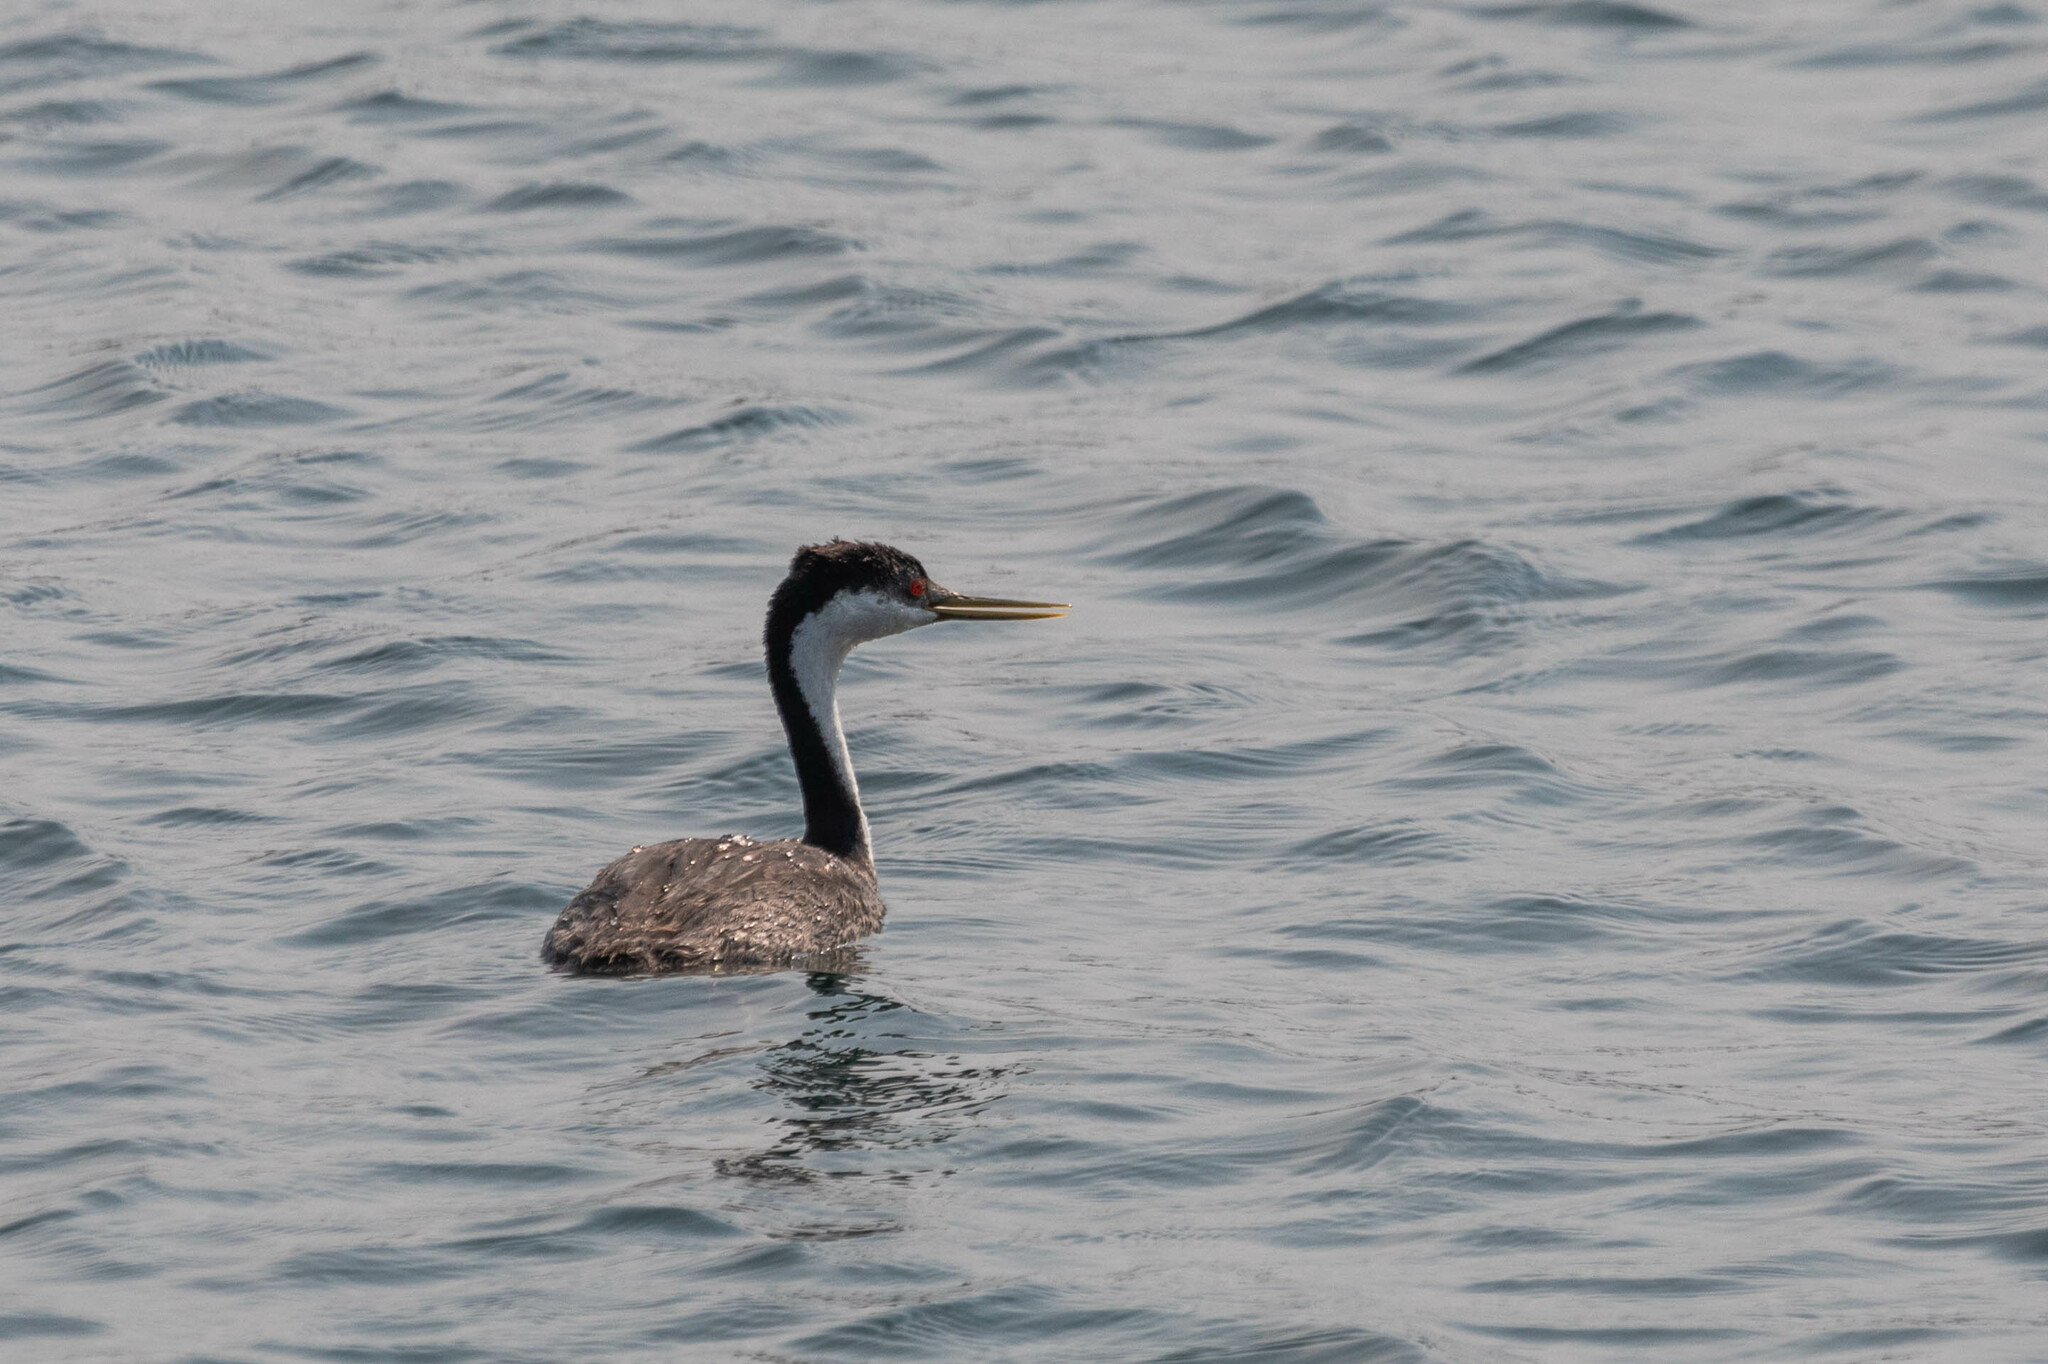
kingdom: Animalia
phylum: Chordata
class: Aves
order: Podicipediformes
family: Podicipedidae
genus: Aechmophorus
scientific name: Aechmophorus occidentalis
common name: Western grebe
